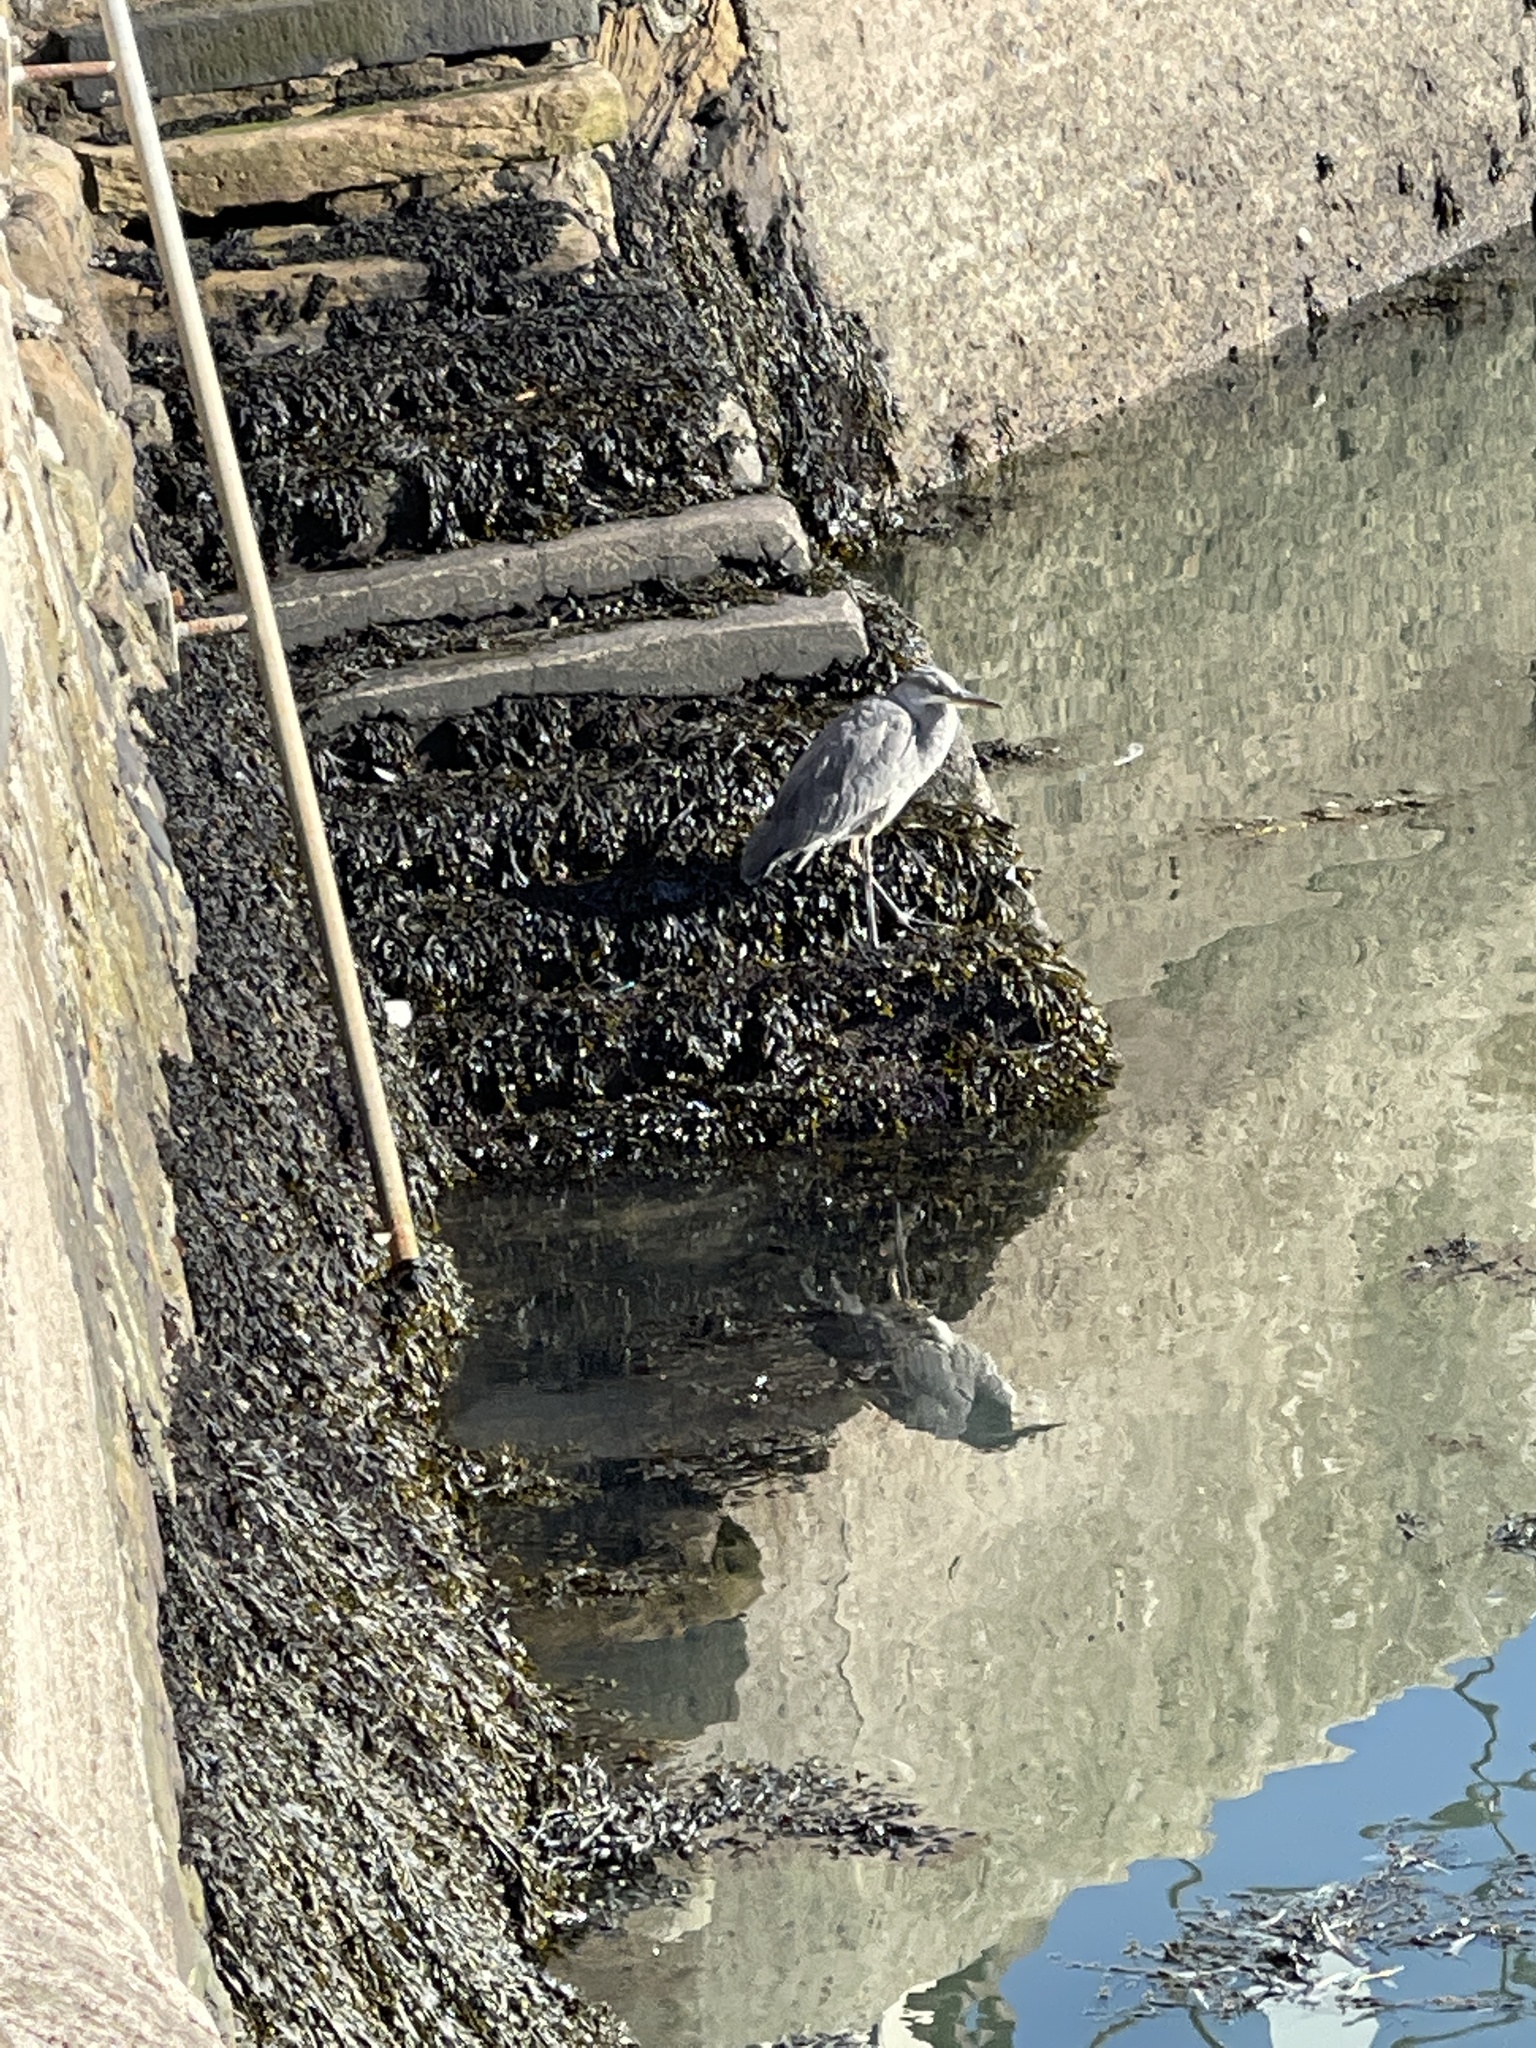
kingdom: Animalia
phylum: Chordata
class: Aves
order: Pelecaniformes
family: Ardeidae
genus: Ardea
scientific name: Ardea cinerea
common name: Grey heron
